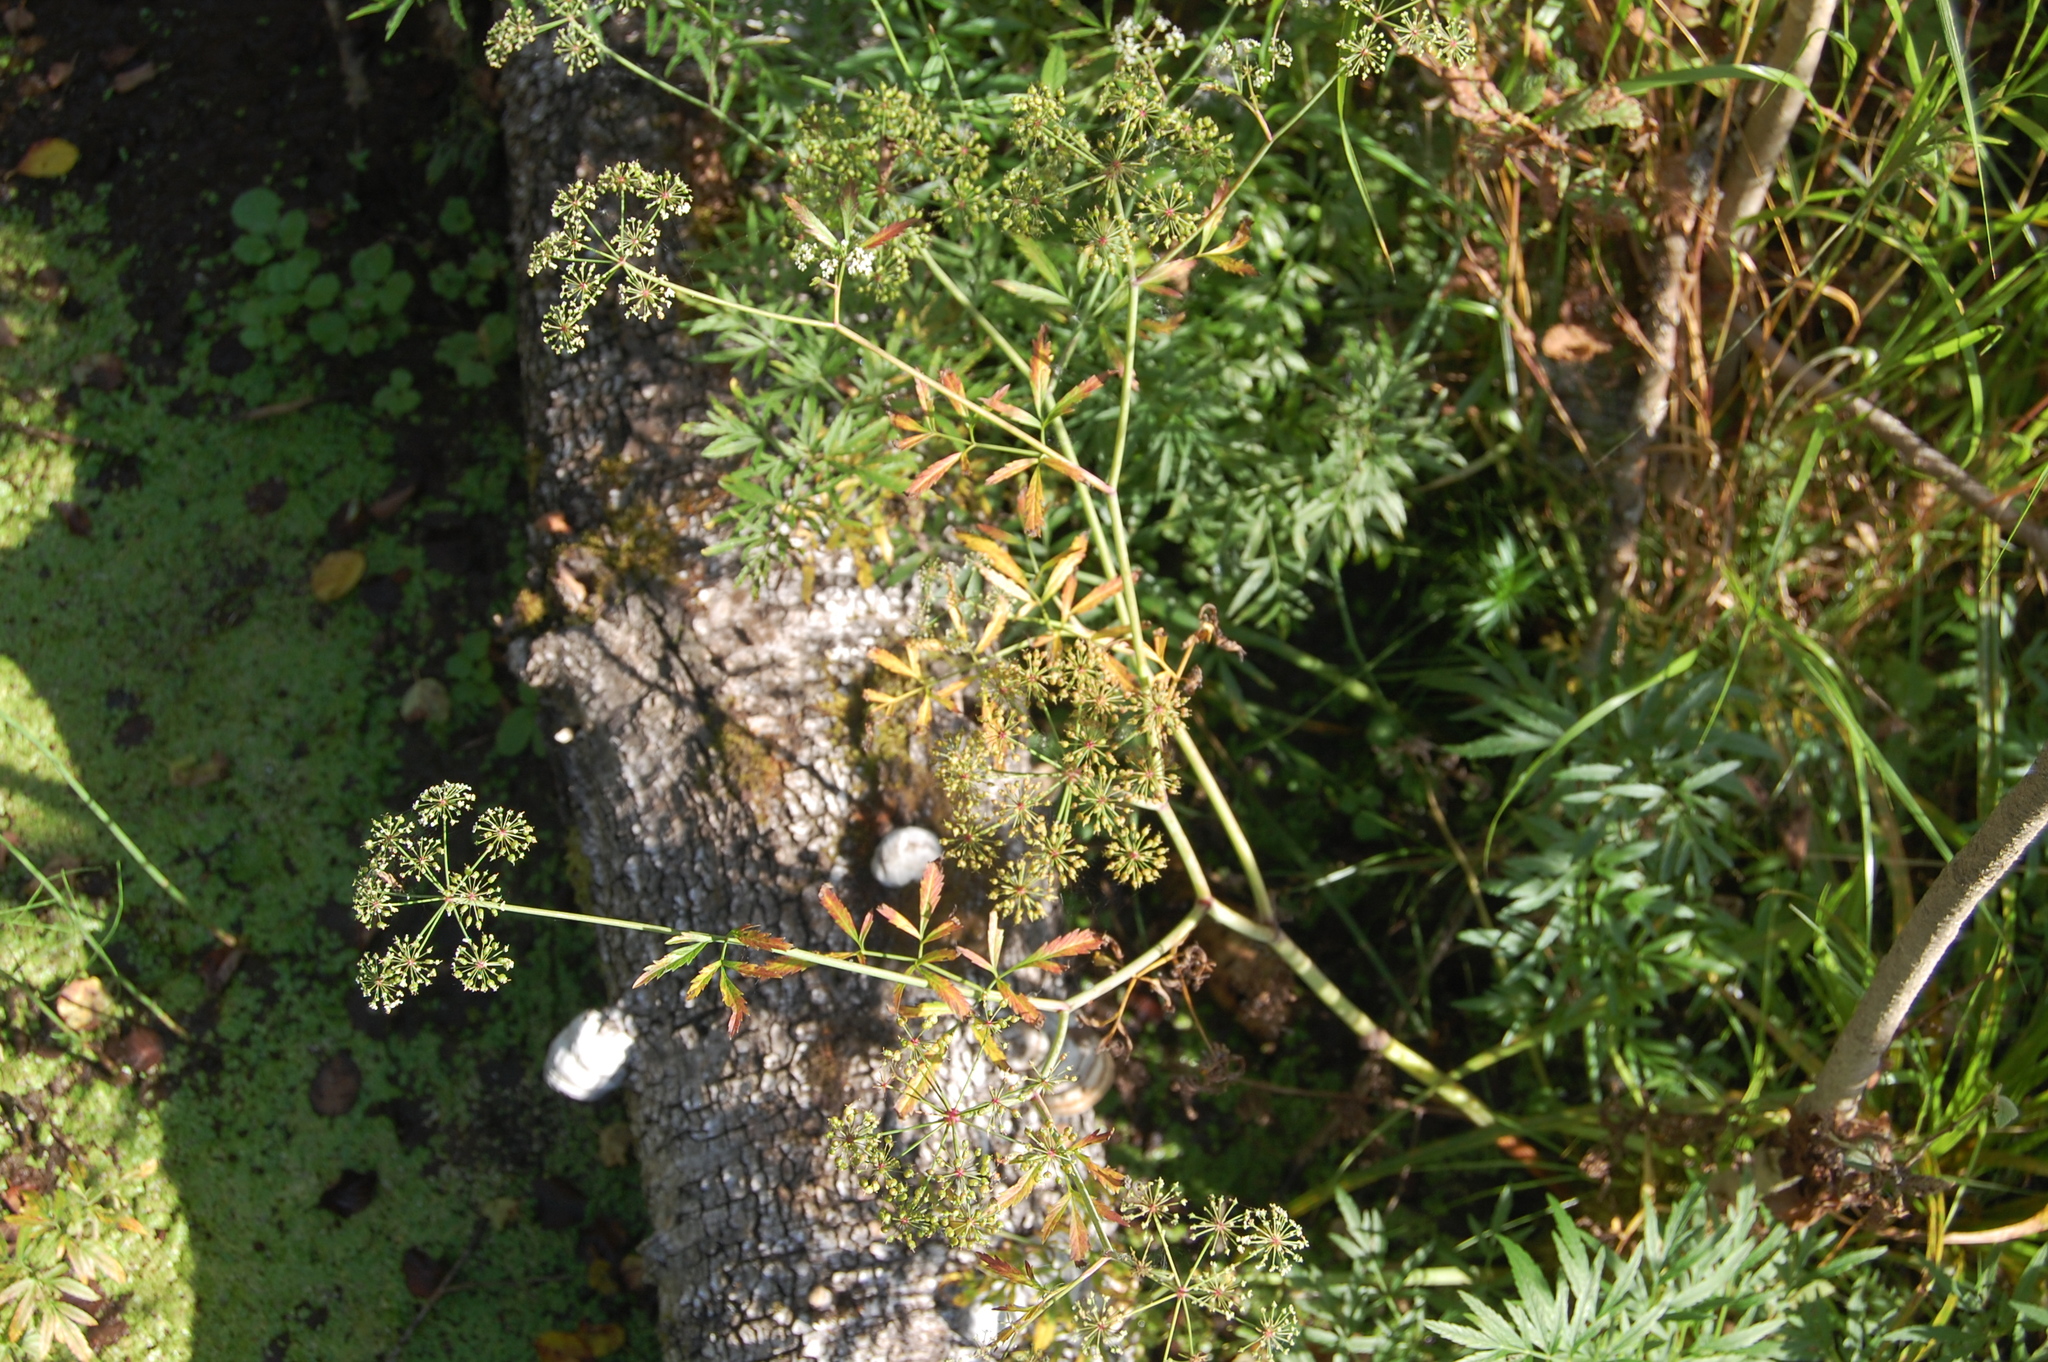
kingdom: Plantae
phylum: Tracheophyta
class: Magnoliopsida
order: Apiales
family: Apiaceae
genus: Cicuta
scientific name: Cicuta virosa
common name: Cowbane
